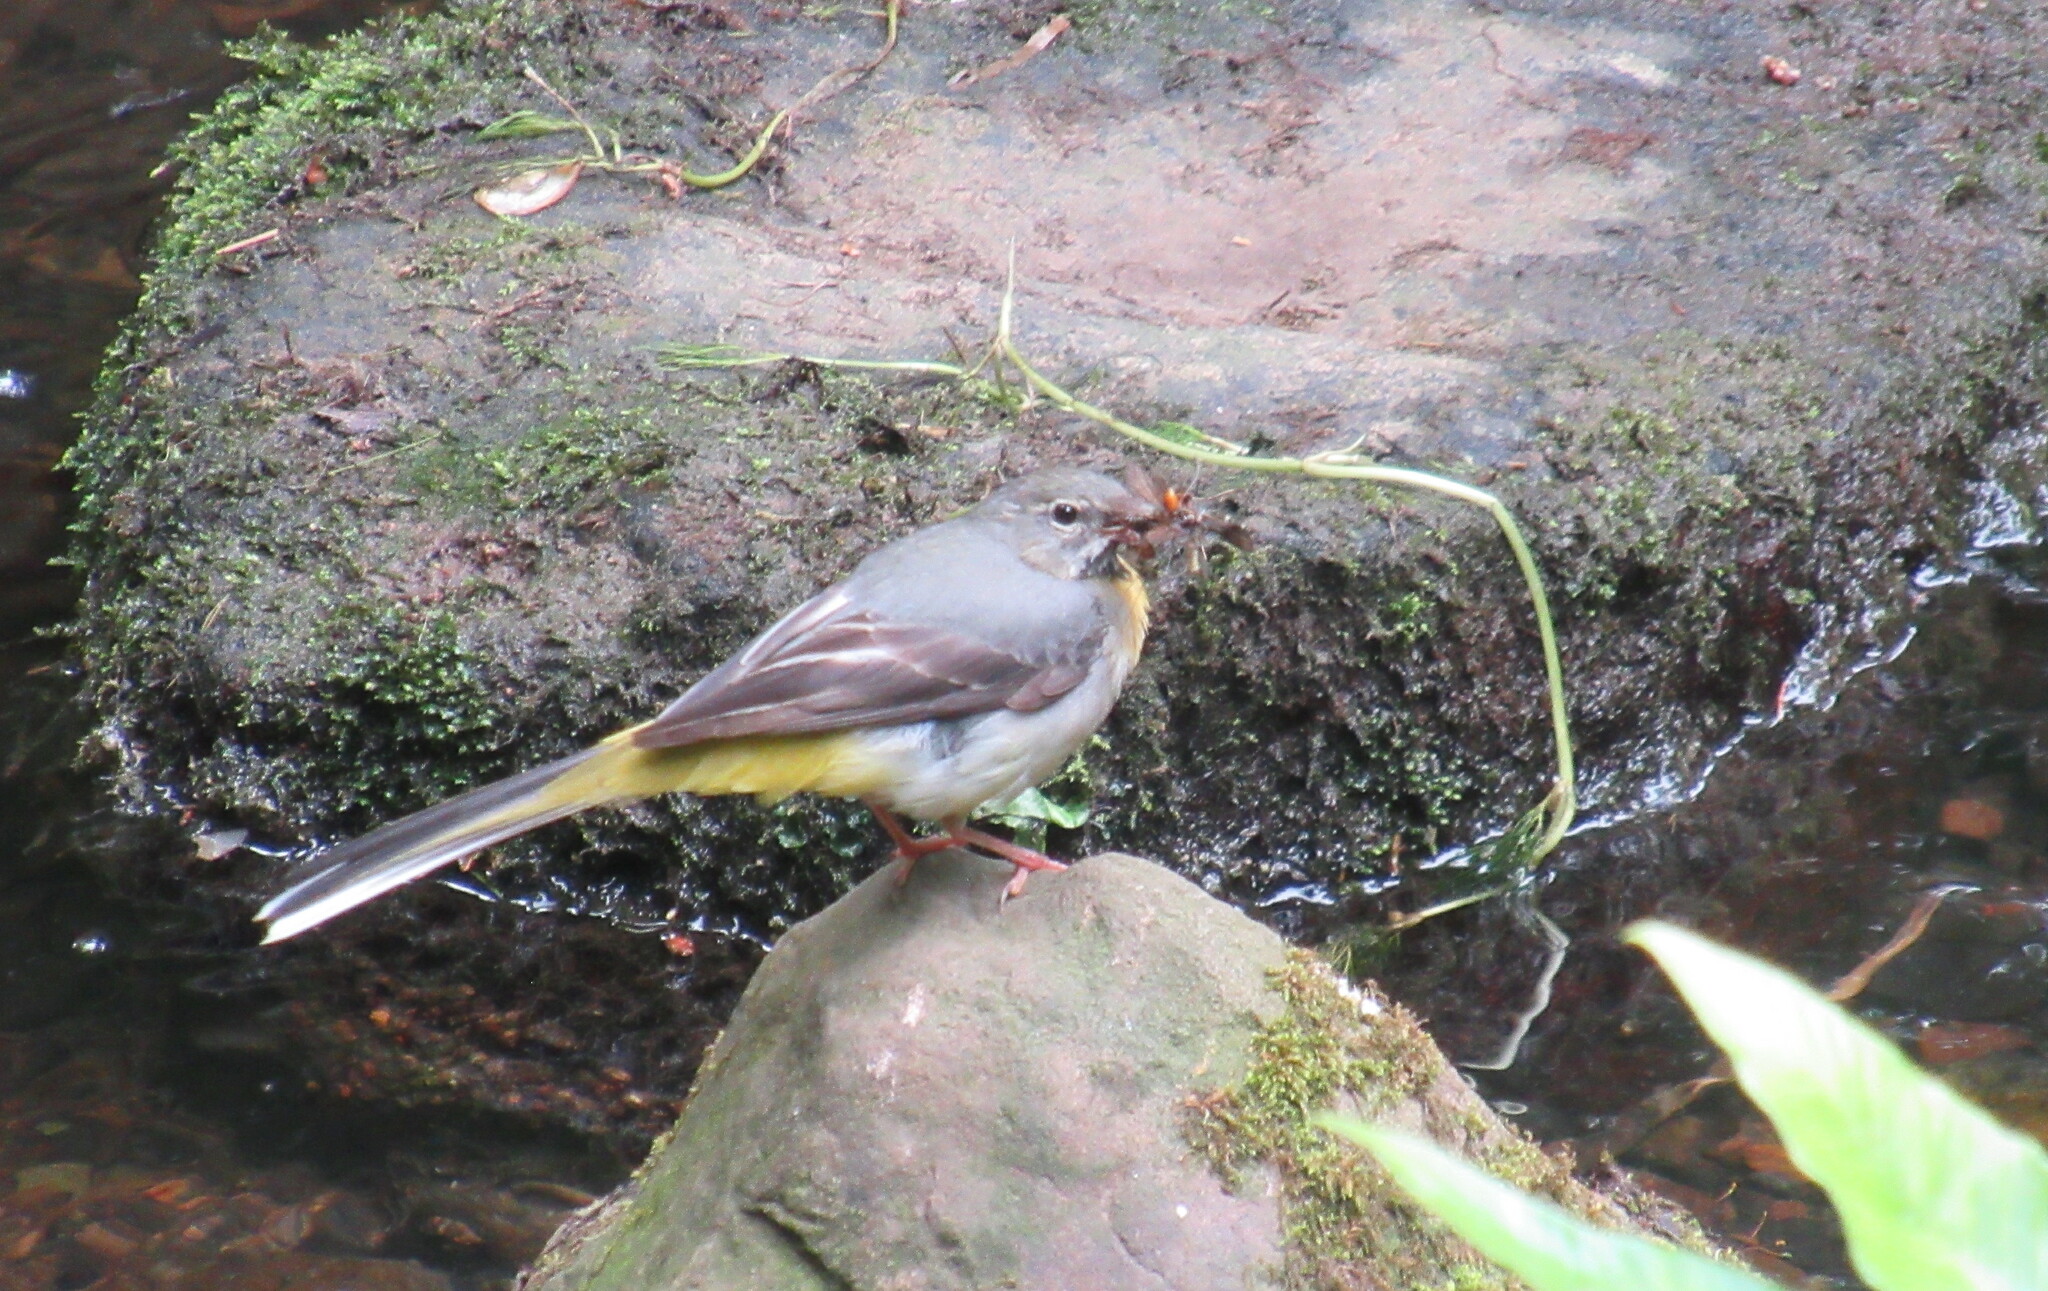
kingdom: Animalia
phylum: Chordata
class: Aves
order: Passeriformes
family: Motacillidae
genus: Motacilla
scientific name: Motacilla cinerea
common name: Grey wagtail
